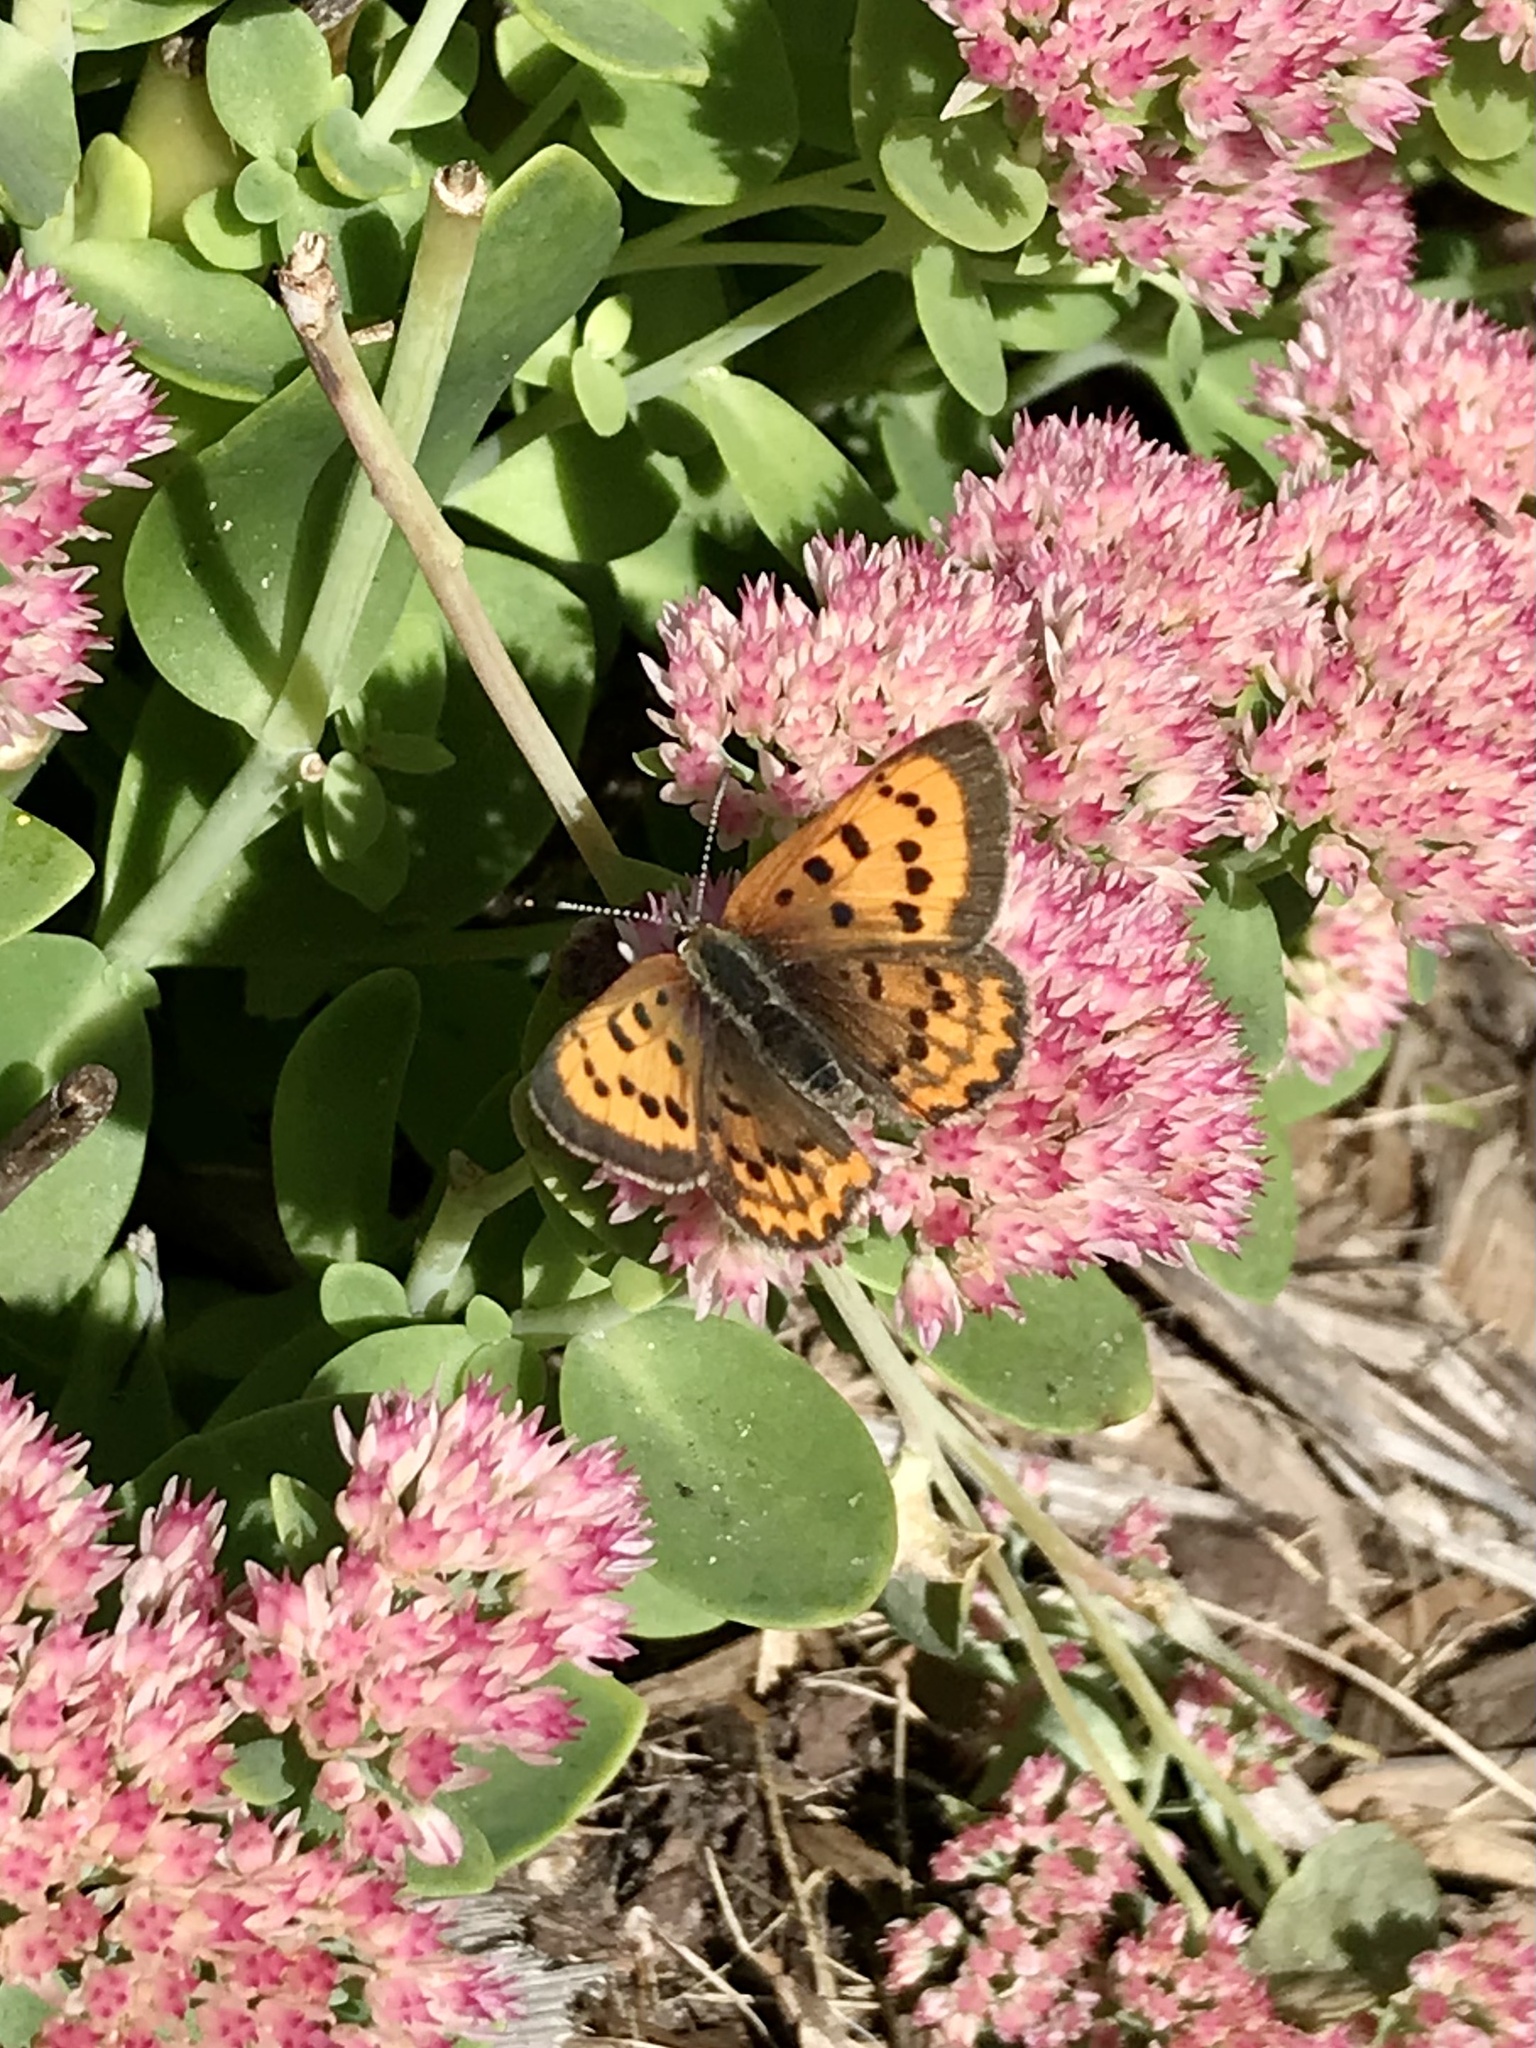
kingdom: Animalia
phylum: Arthropoda
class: Insecta
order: Lepidoptera
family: Lycaenidae
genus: Tharsalea
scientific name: Tharsalea helloides
